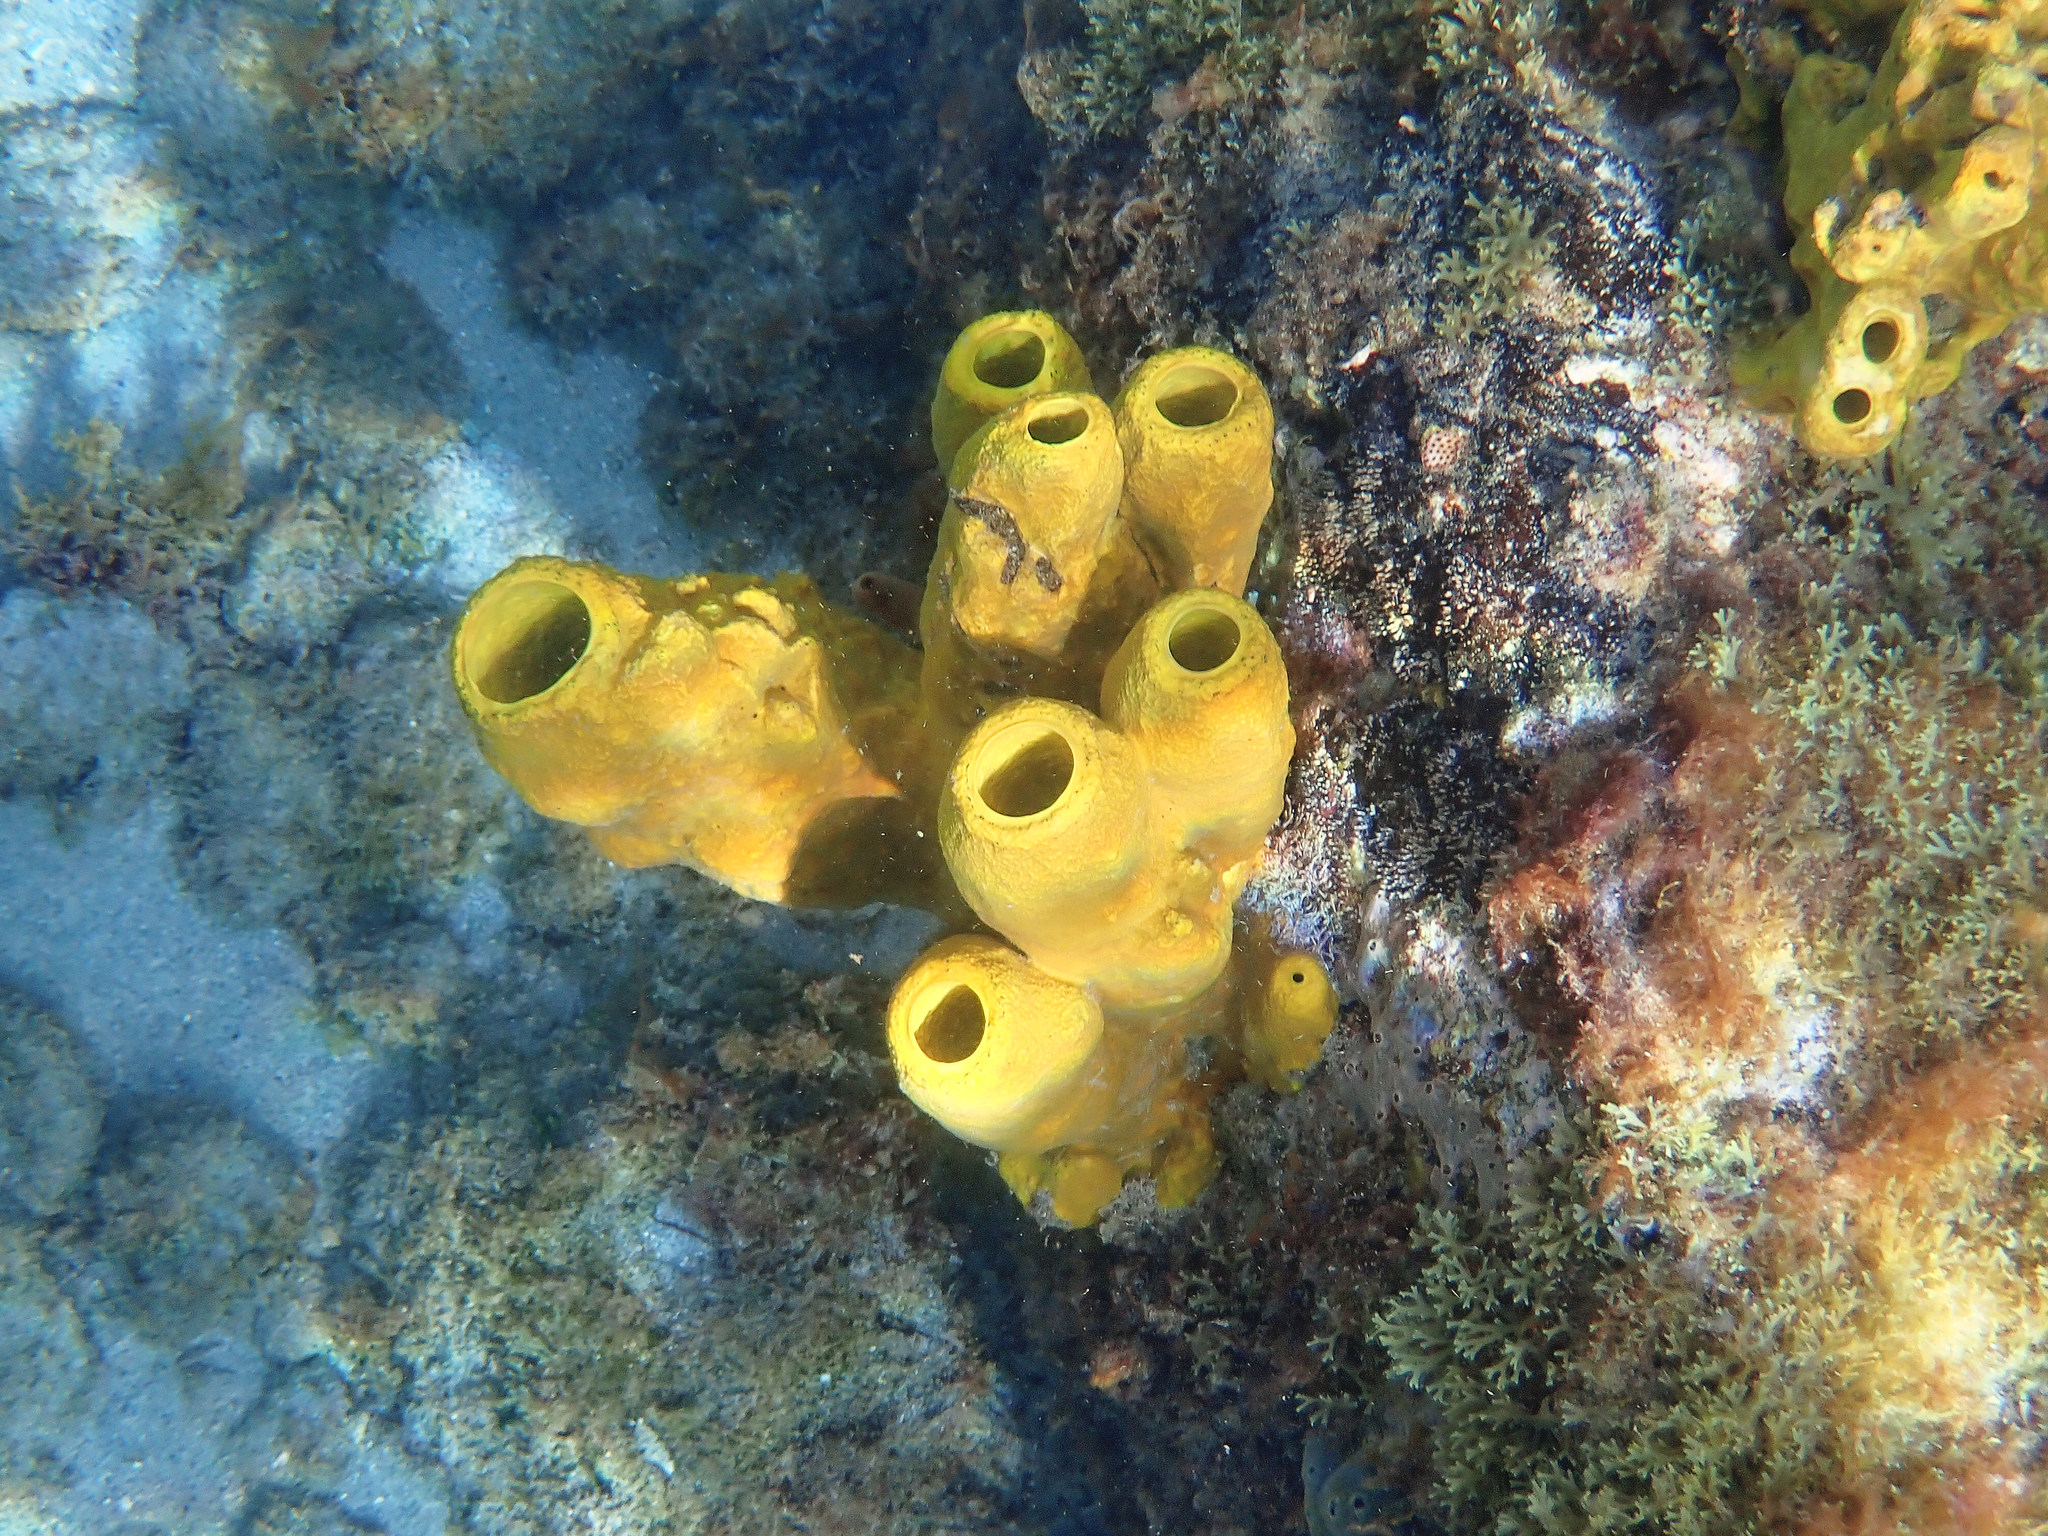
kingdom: Animalia
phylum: Porifera
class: Demospongiae
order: Verongiida
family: Aplysinidae
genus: Aplysina
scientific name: Aplysina fistularis
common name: Candle sponge
